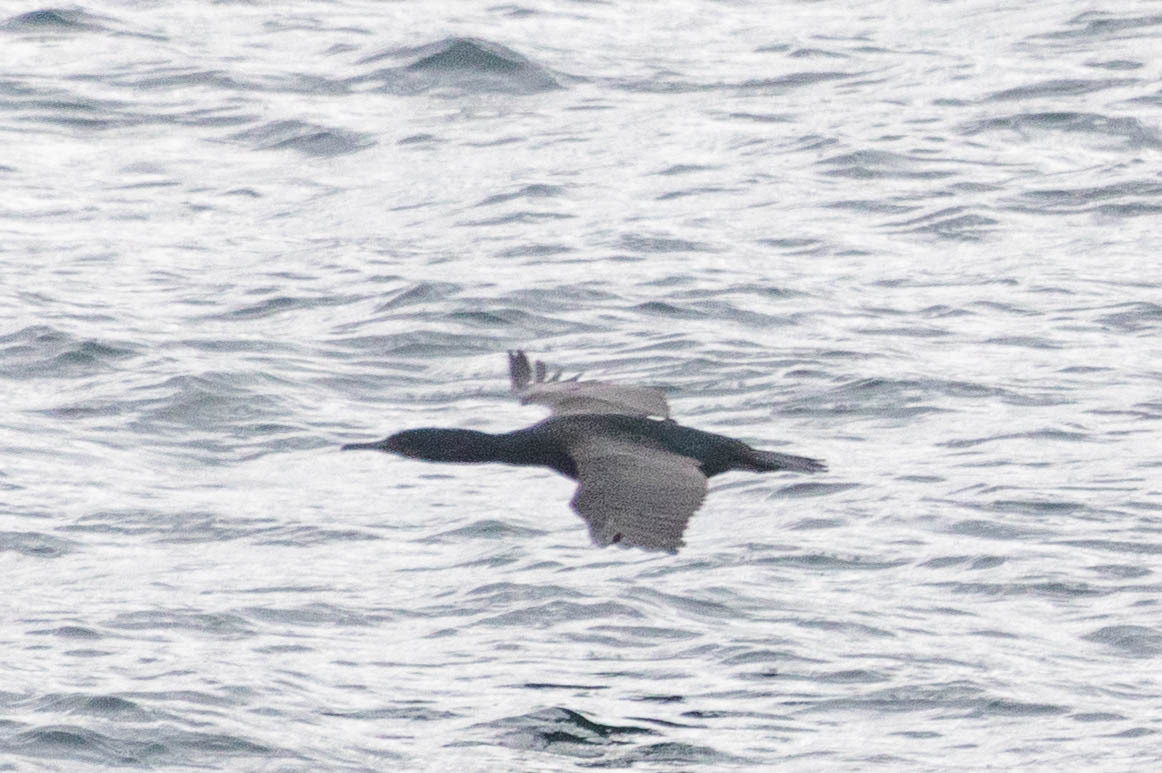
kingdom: Animalia
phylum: Chordata
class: Aves
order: Suliformes
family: Phalacrocoracidae
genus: Phalacrocorax
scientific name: Phalacrocorax pelagicus
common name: Pelagic cormorant
